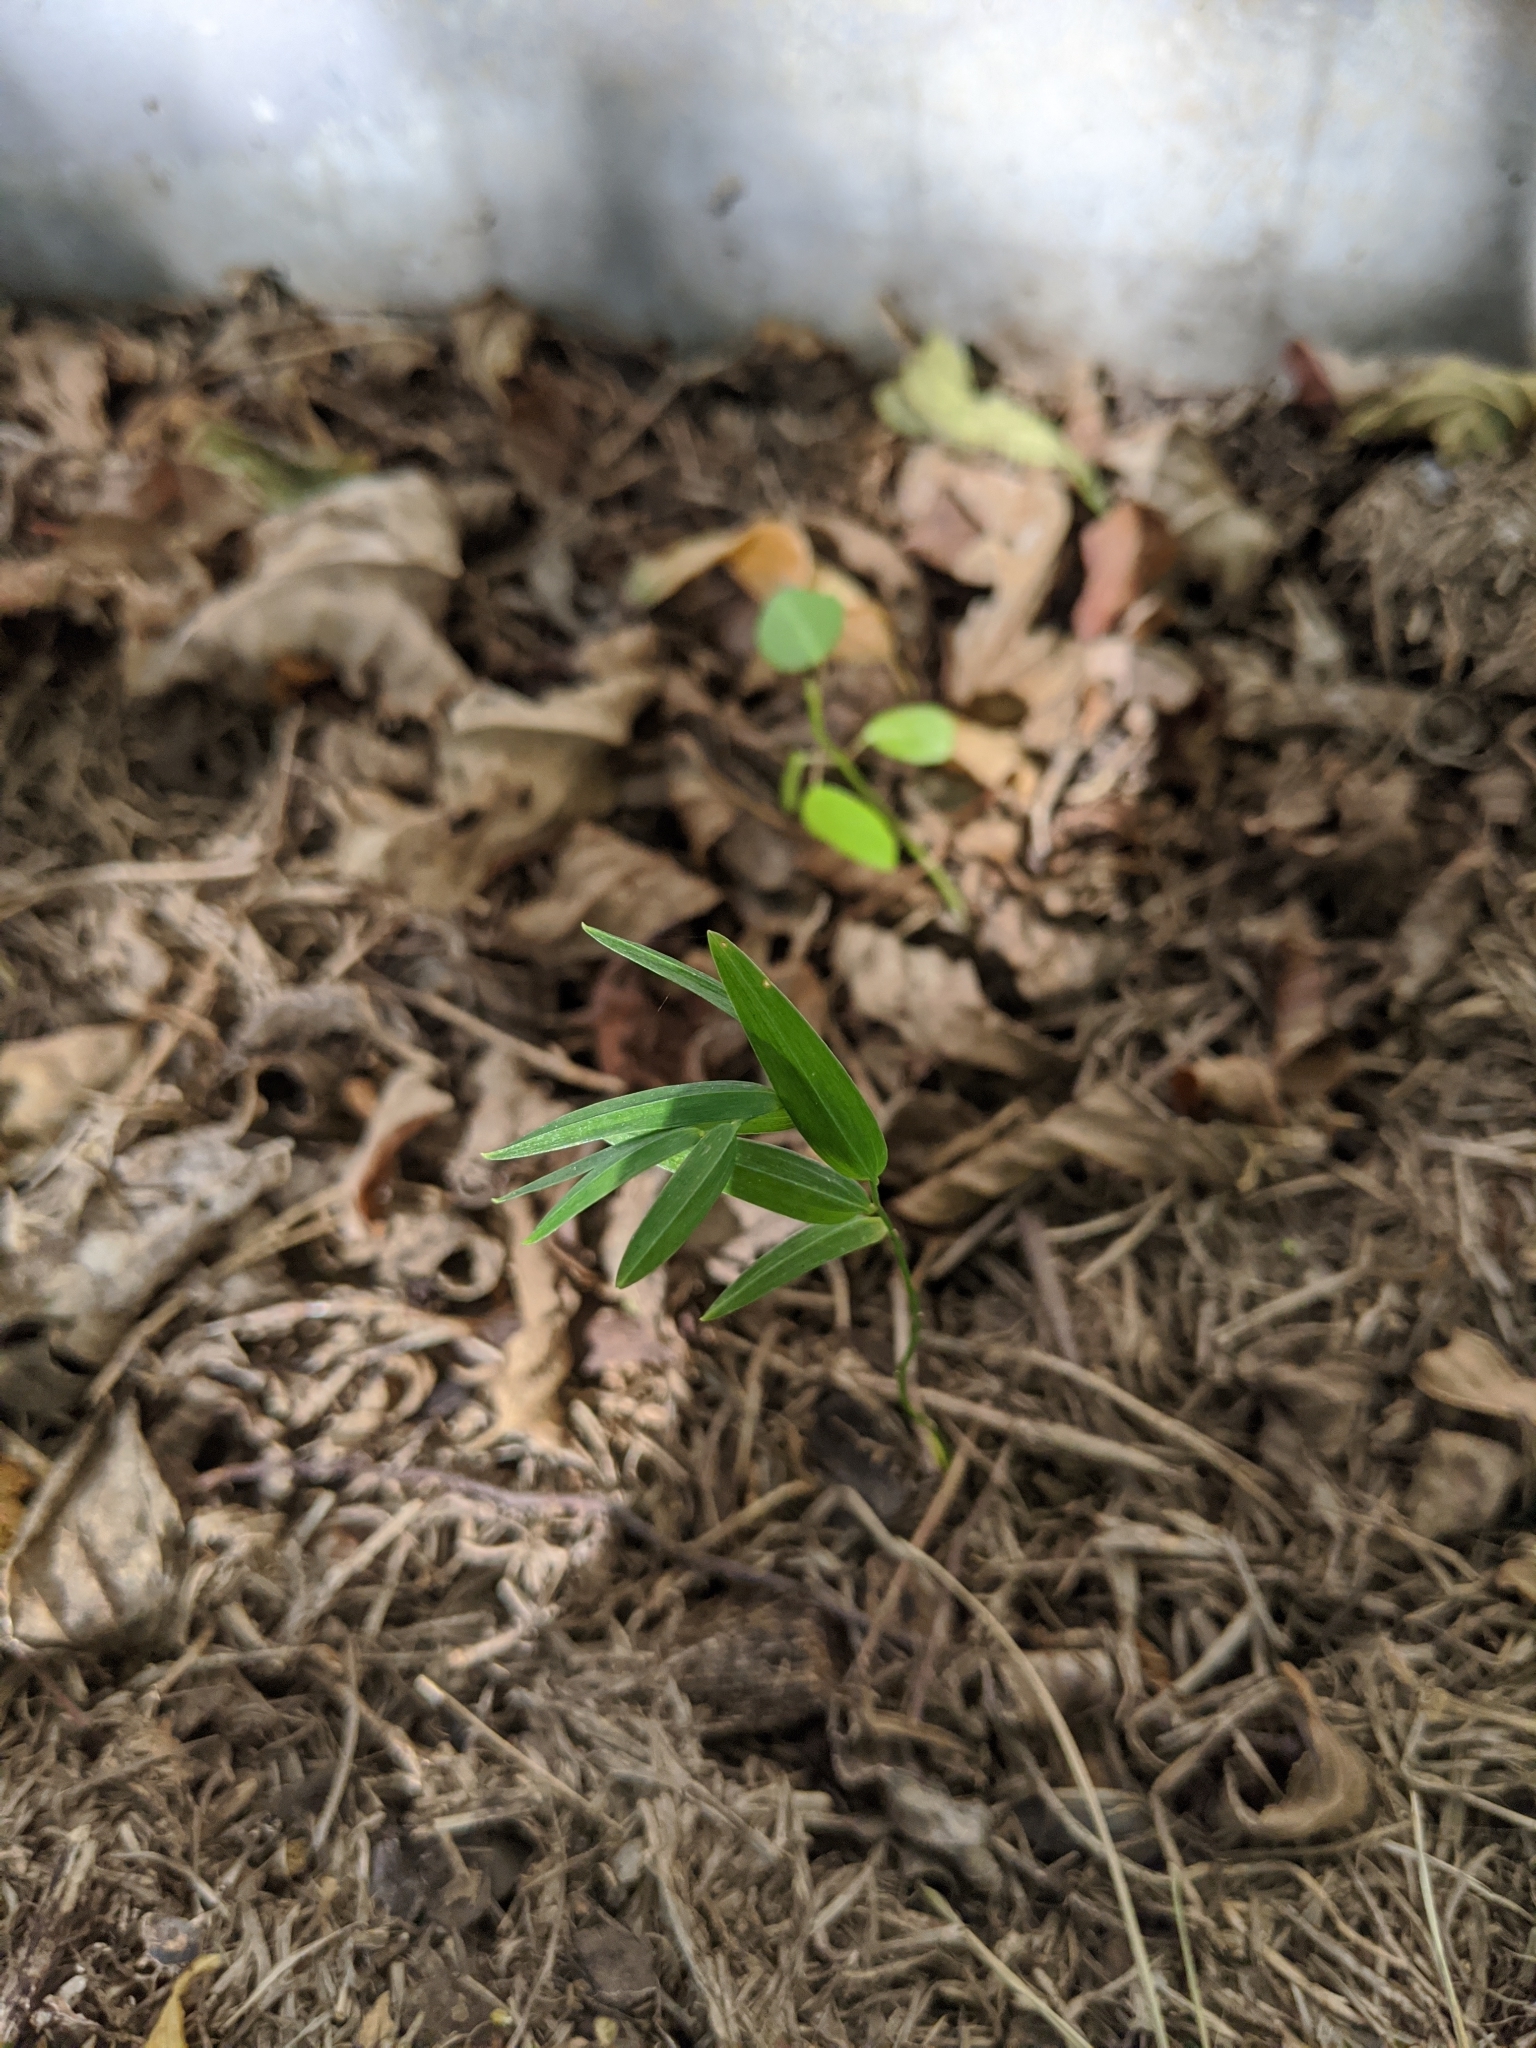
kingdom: Plantae
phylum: Tracheophyta
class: Liliopsida
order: Asparagales
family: Asphodelaceae
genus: Geitonoplesium
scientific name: Geitonoplesium cymosum
